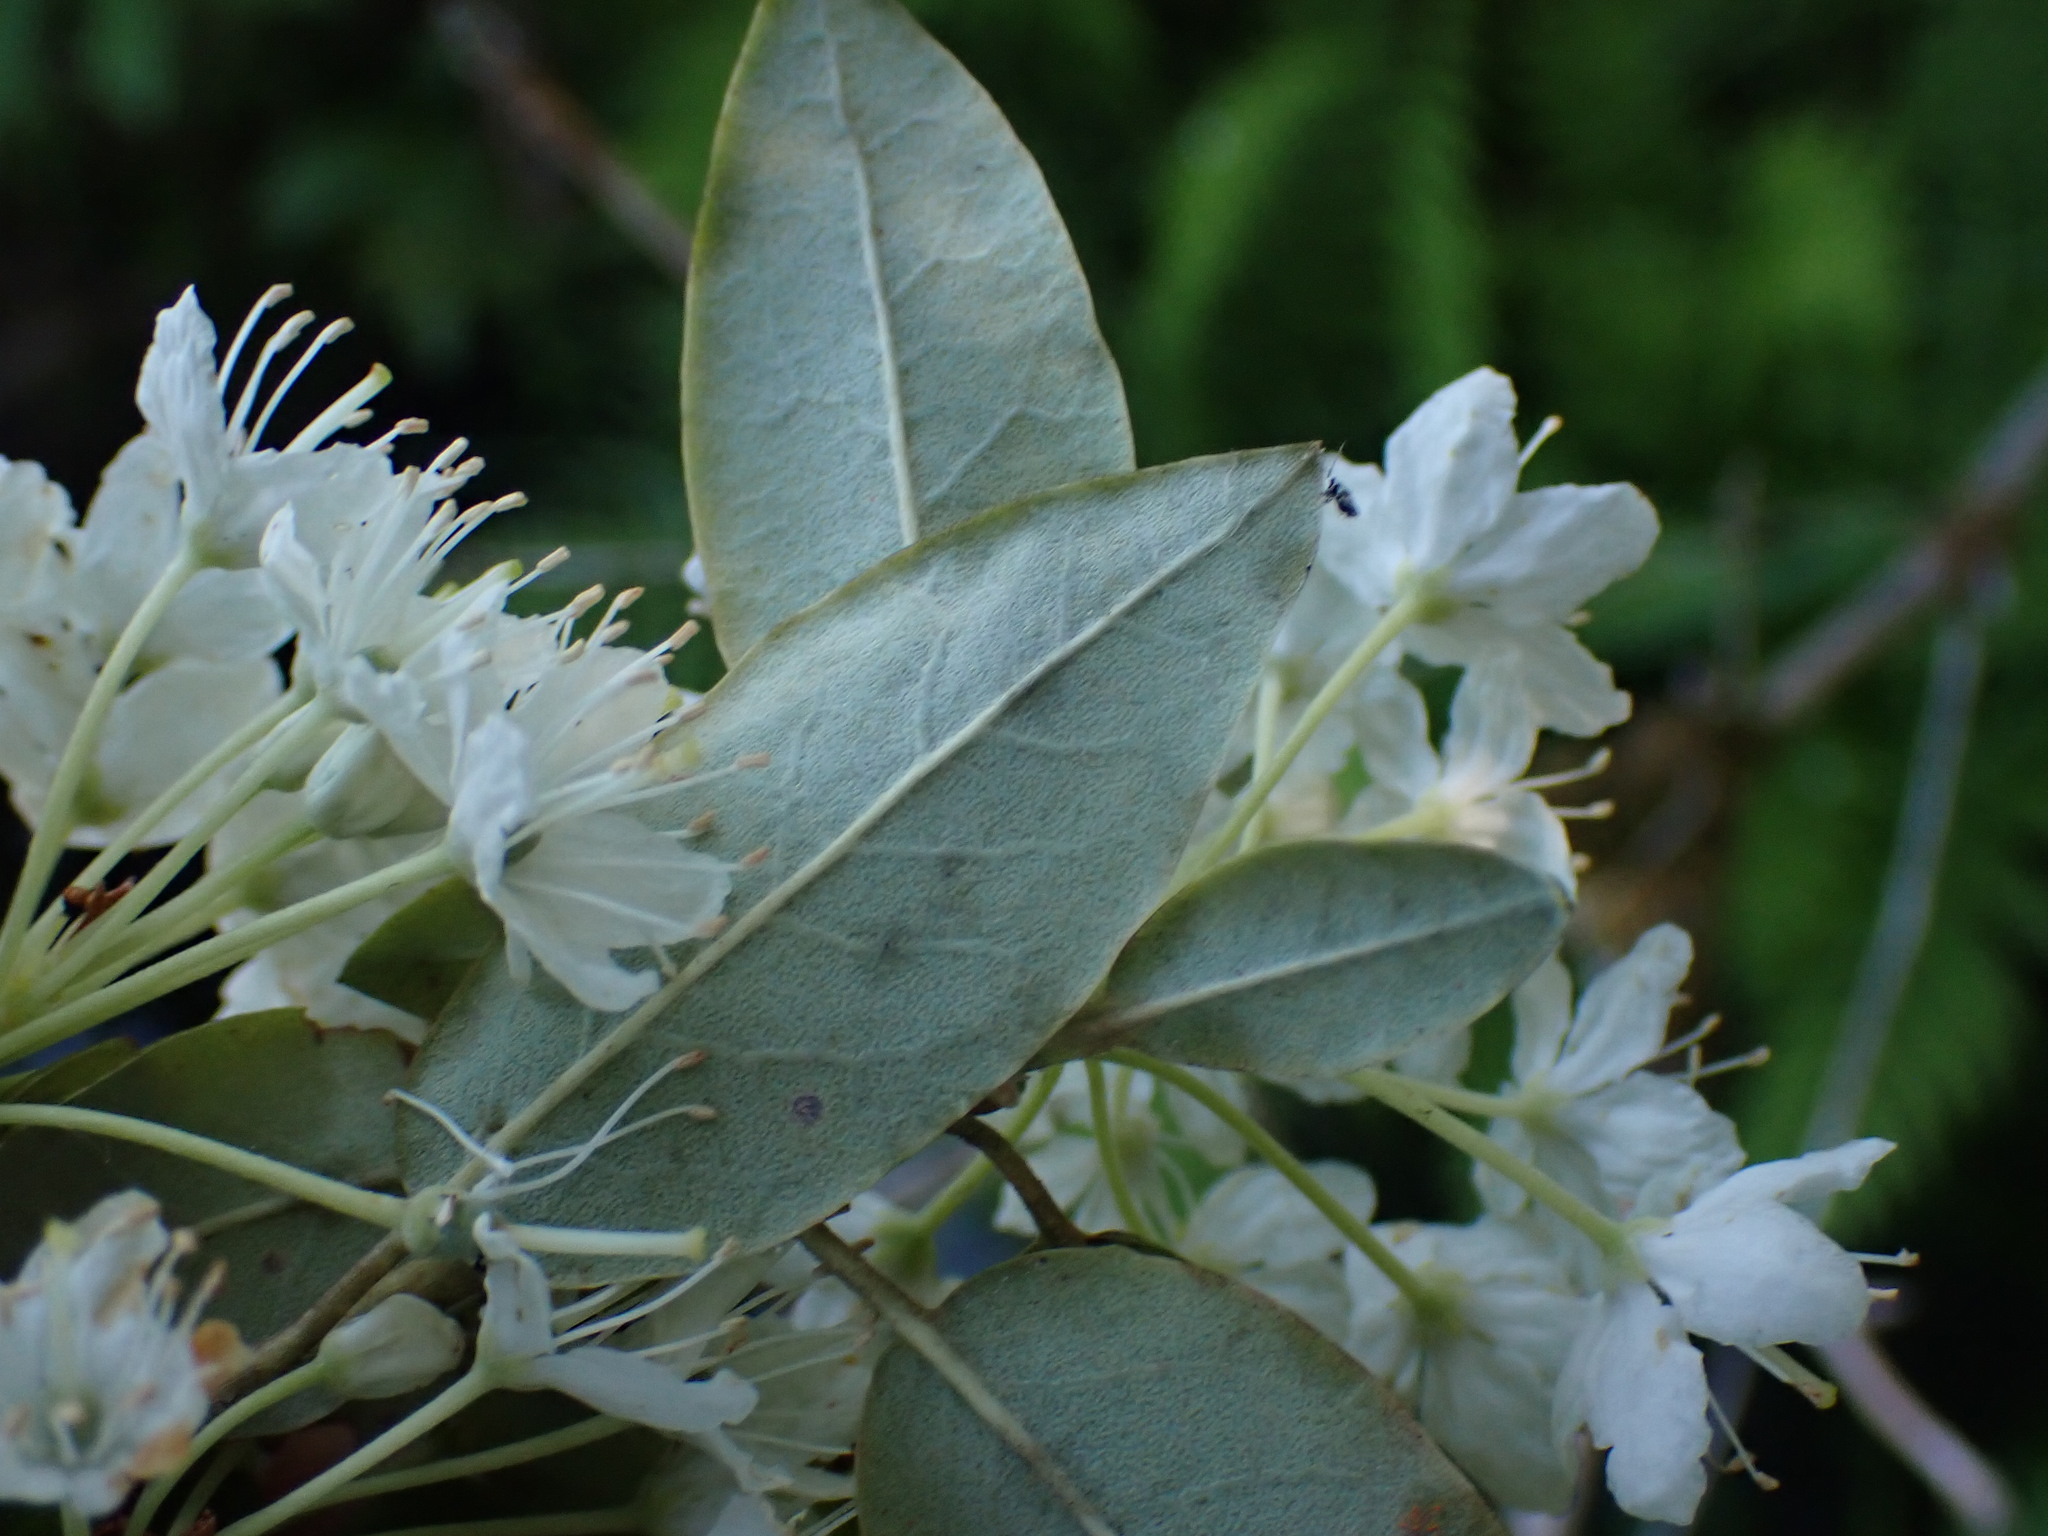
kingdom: Plantae
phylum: Tracheophyta
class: Magnoliopsida
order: Ericales
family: Ericaceae
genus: Rhododendron
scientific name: Rhododendron columbianum
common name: Western labrador tea
